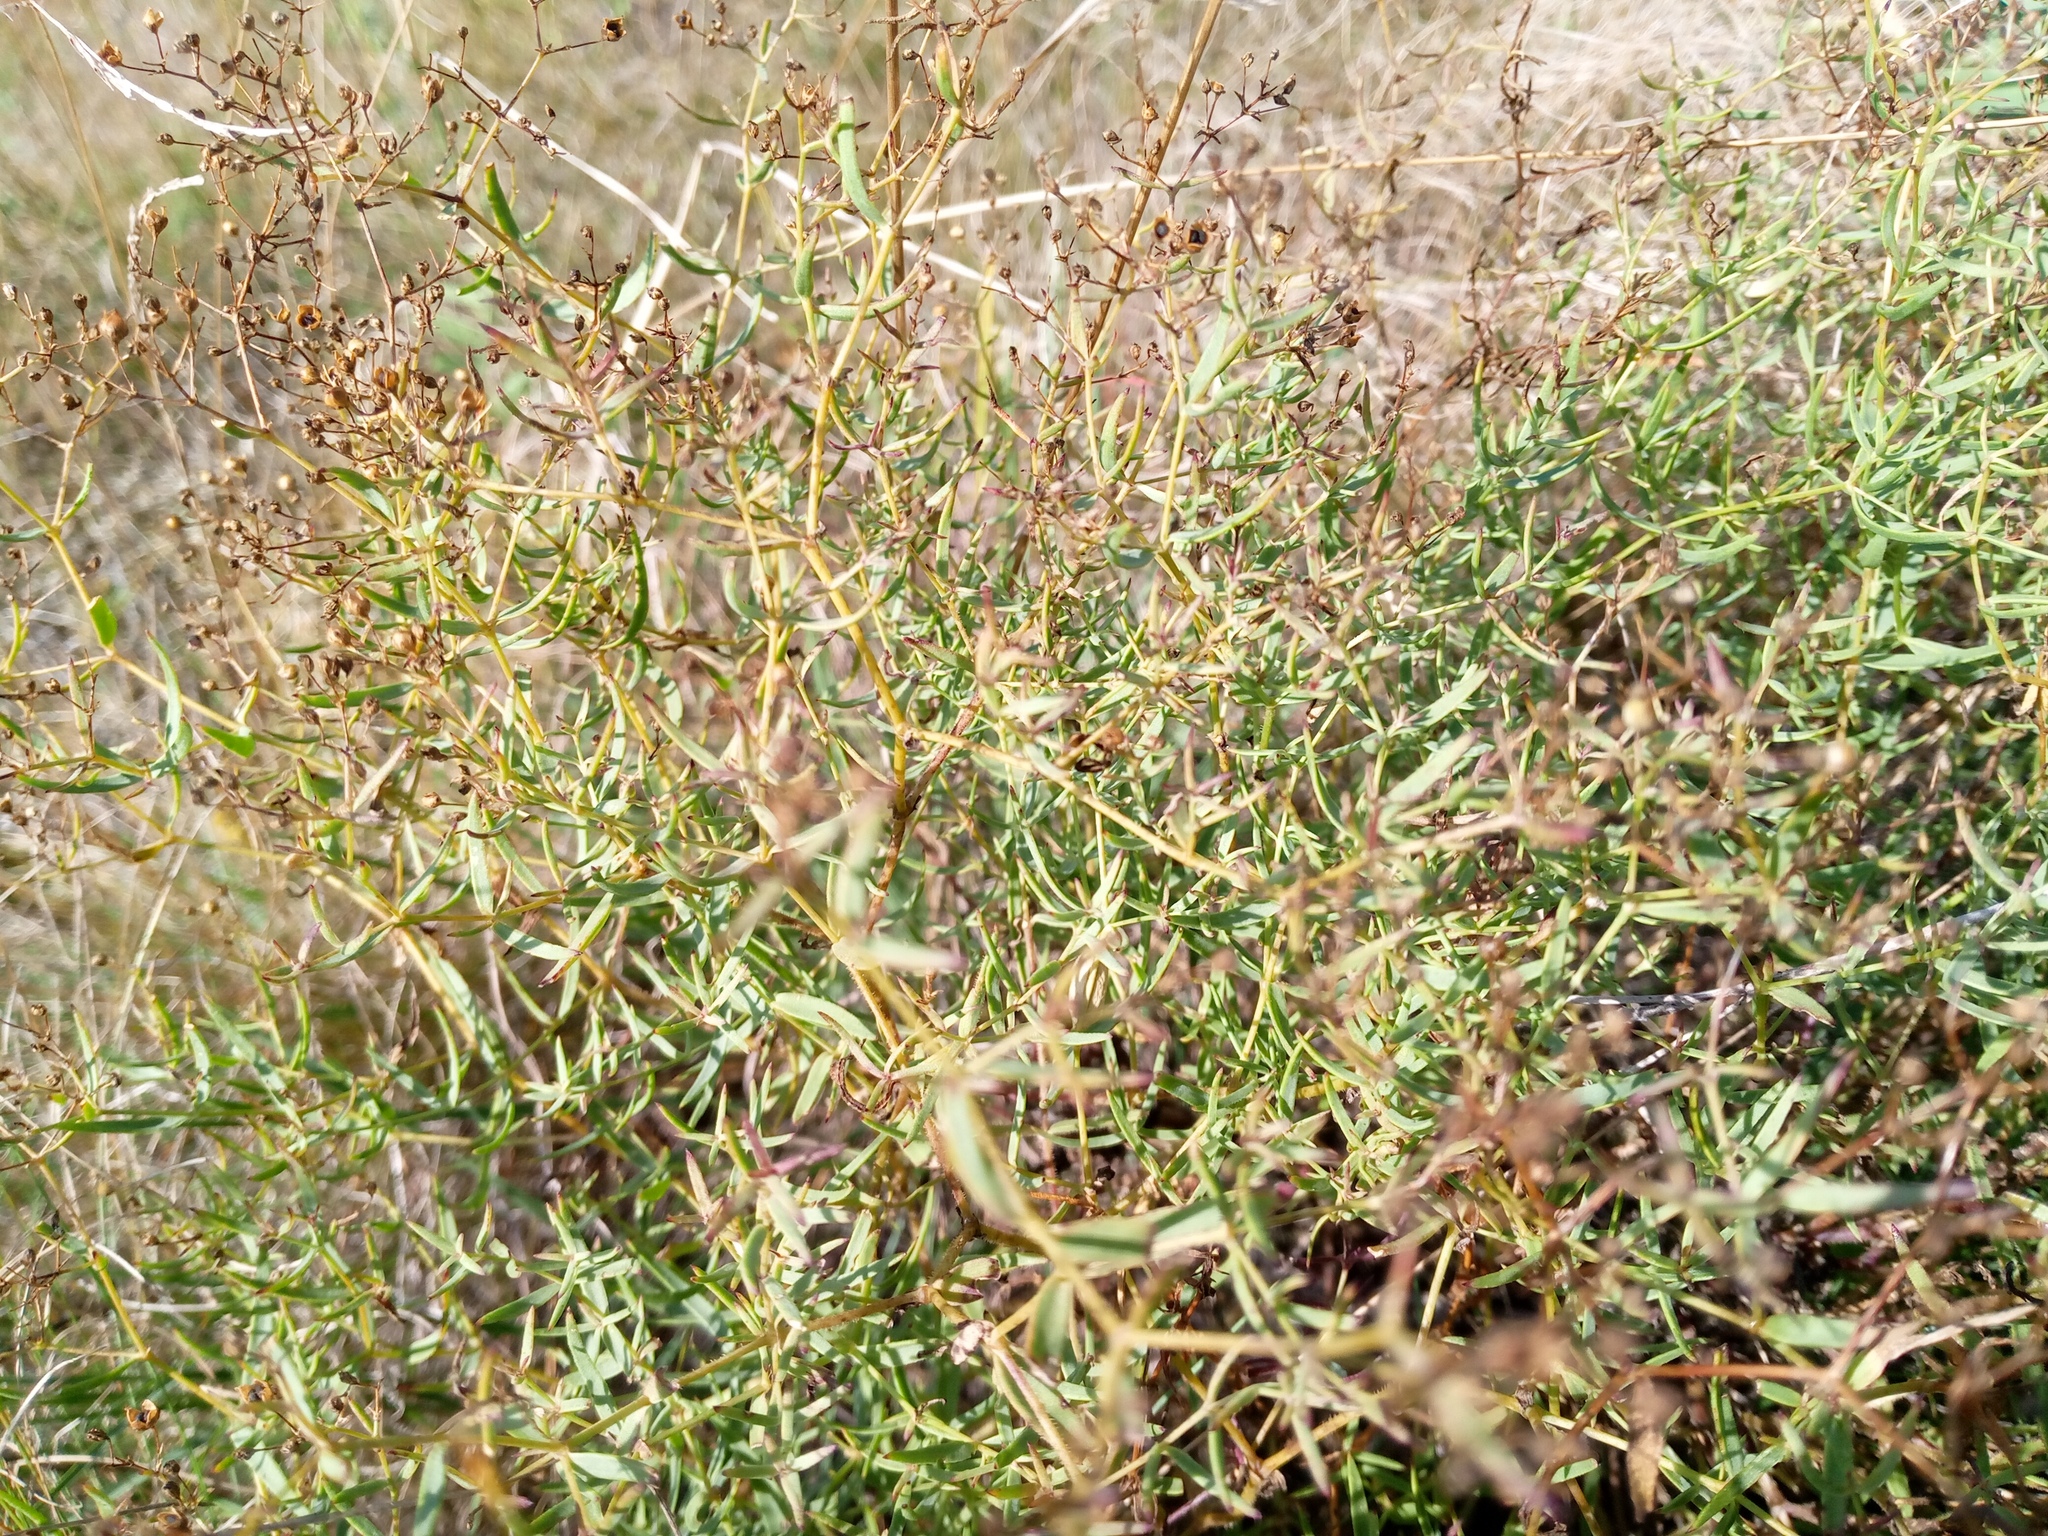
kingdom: Plantae
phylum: Tracheophyta
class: Magnoliopsida
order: Caryophyllales
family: Caryophyllaceae
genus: Gypsophila
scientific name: Gypsophila paniculata
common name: Baby's-breath
